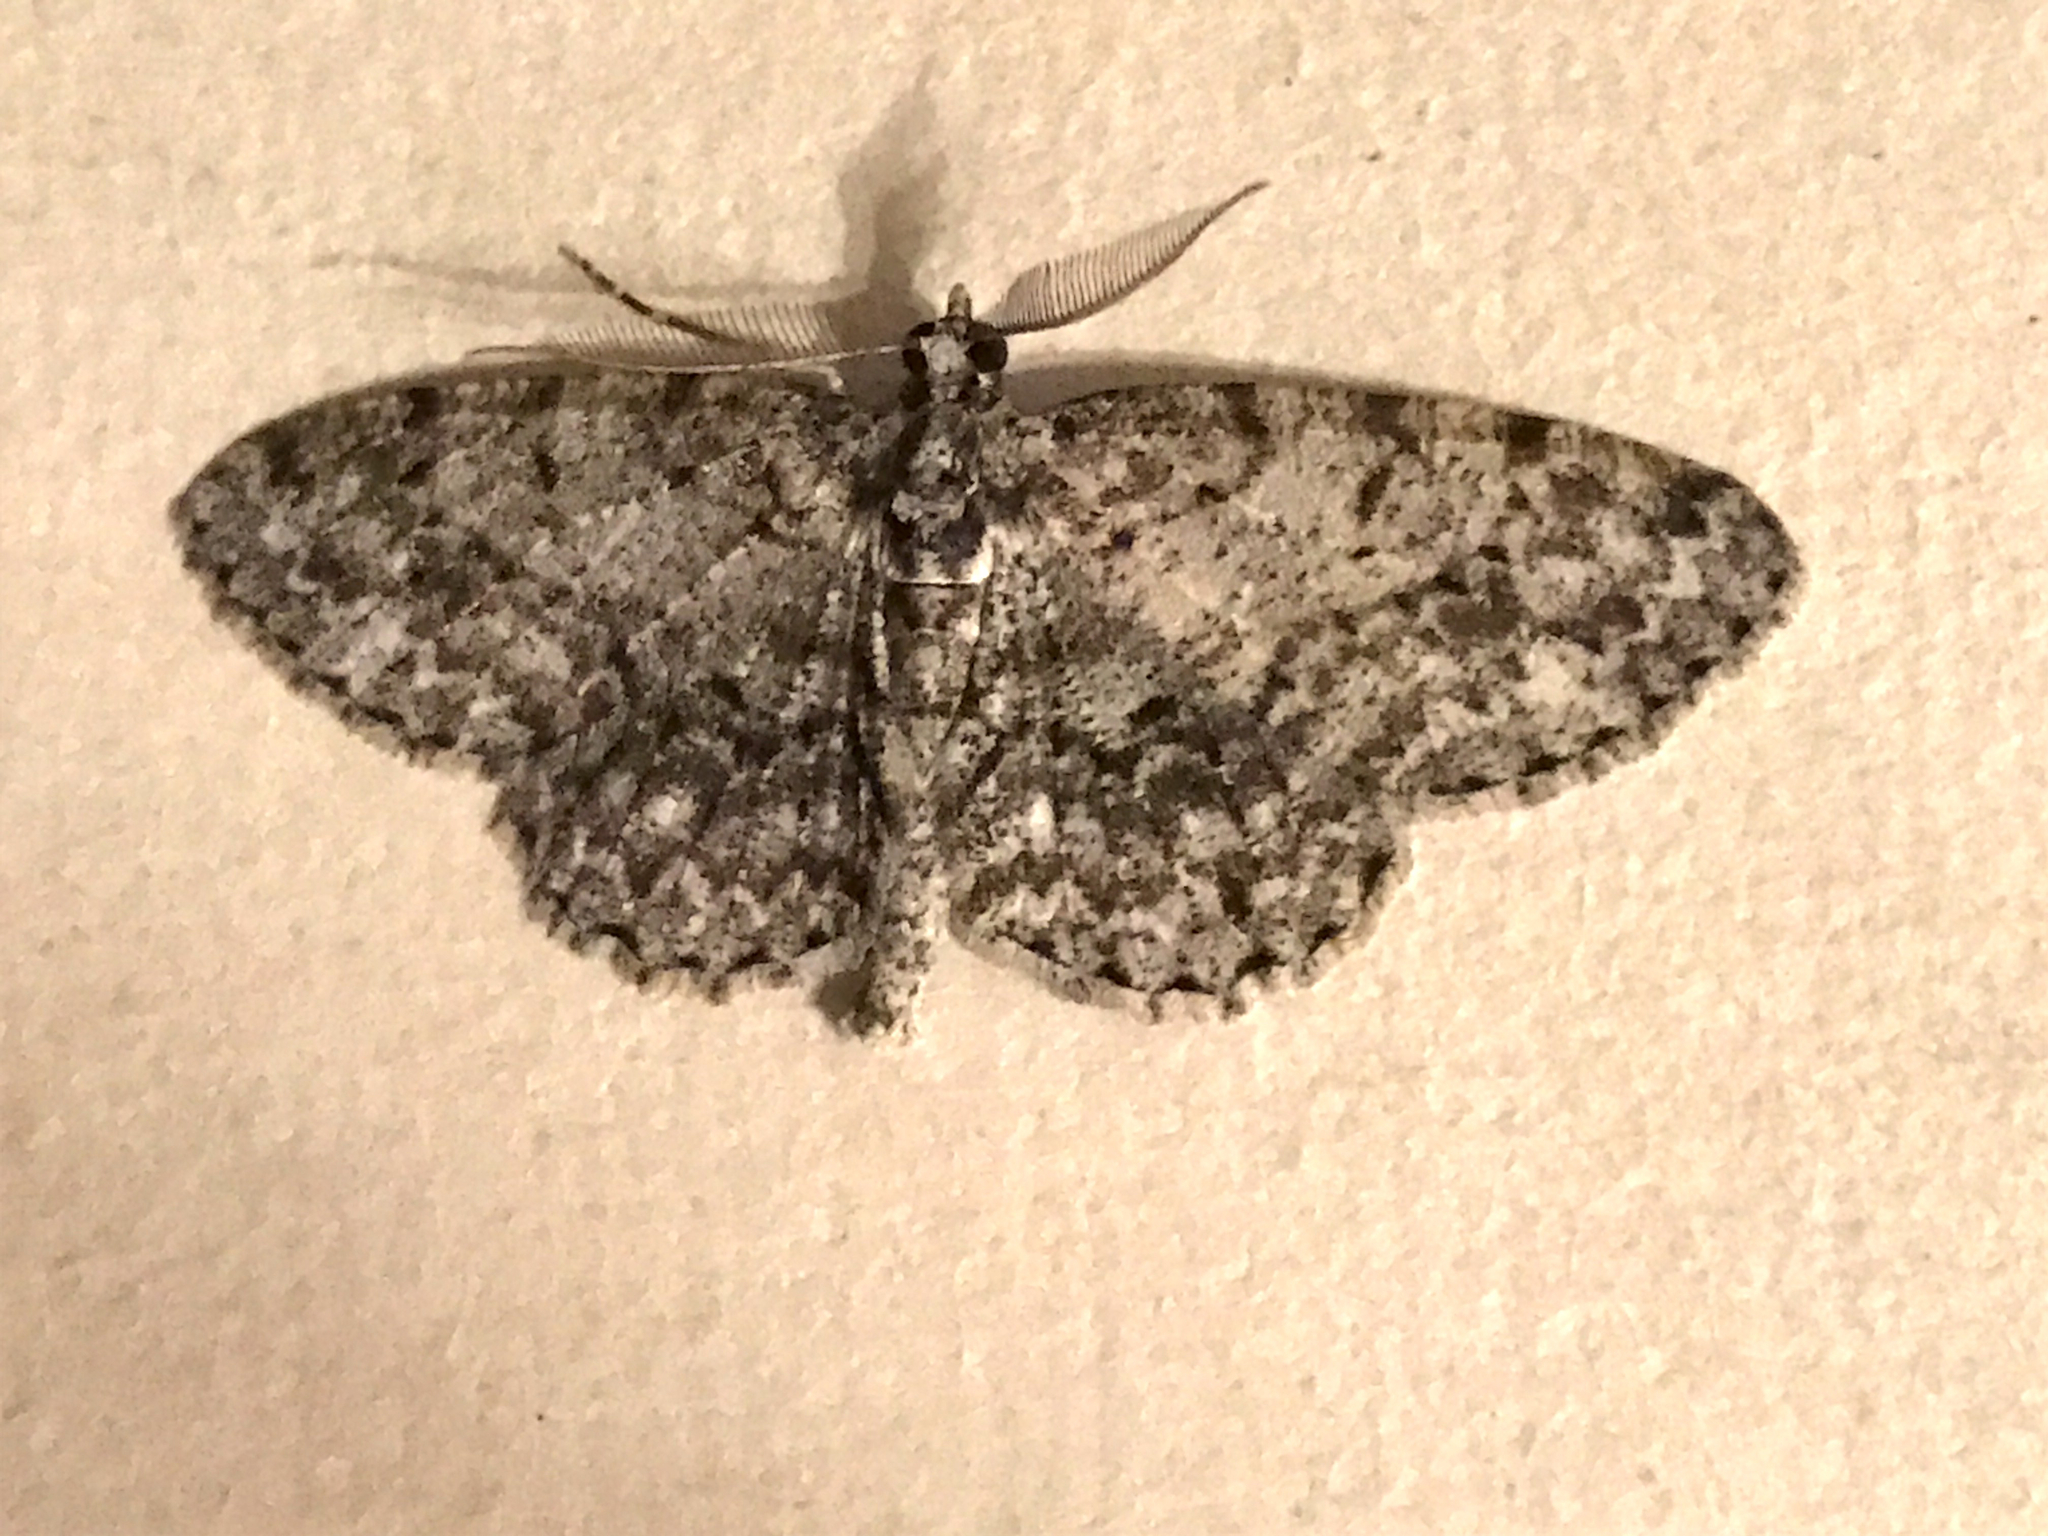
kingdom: Animalia
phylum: Arthropoda
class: Insecta
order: Lepidoptera
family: Geometridae
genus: Protoboarmia
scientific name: Protoboarmia porcelaria
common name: Porcelain gray
